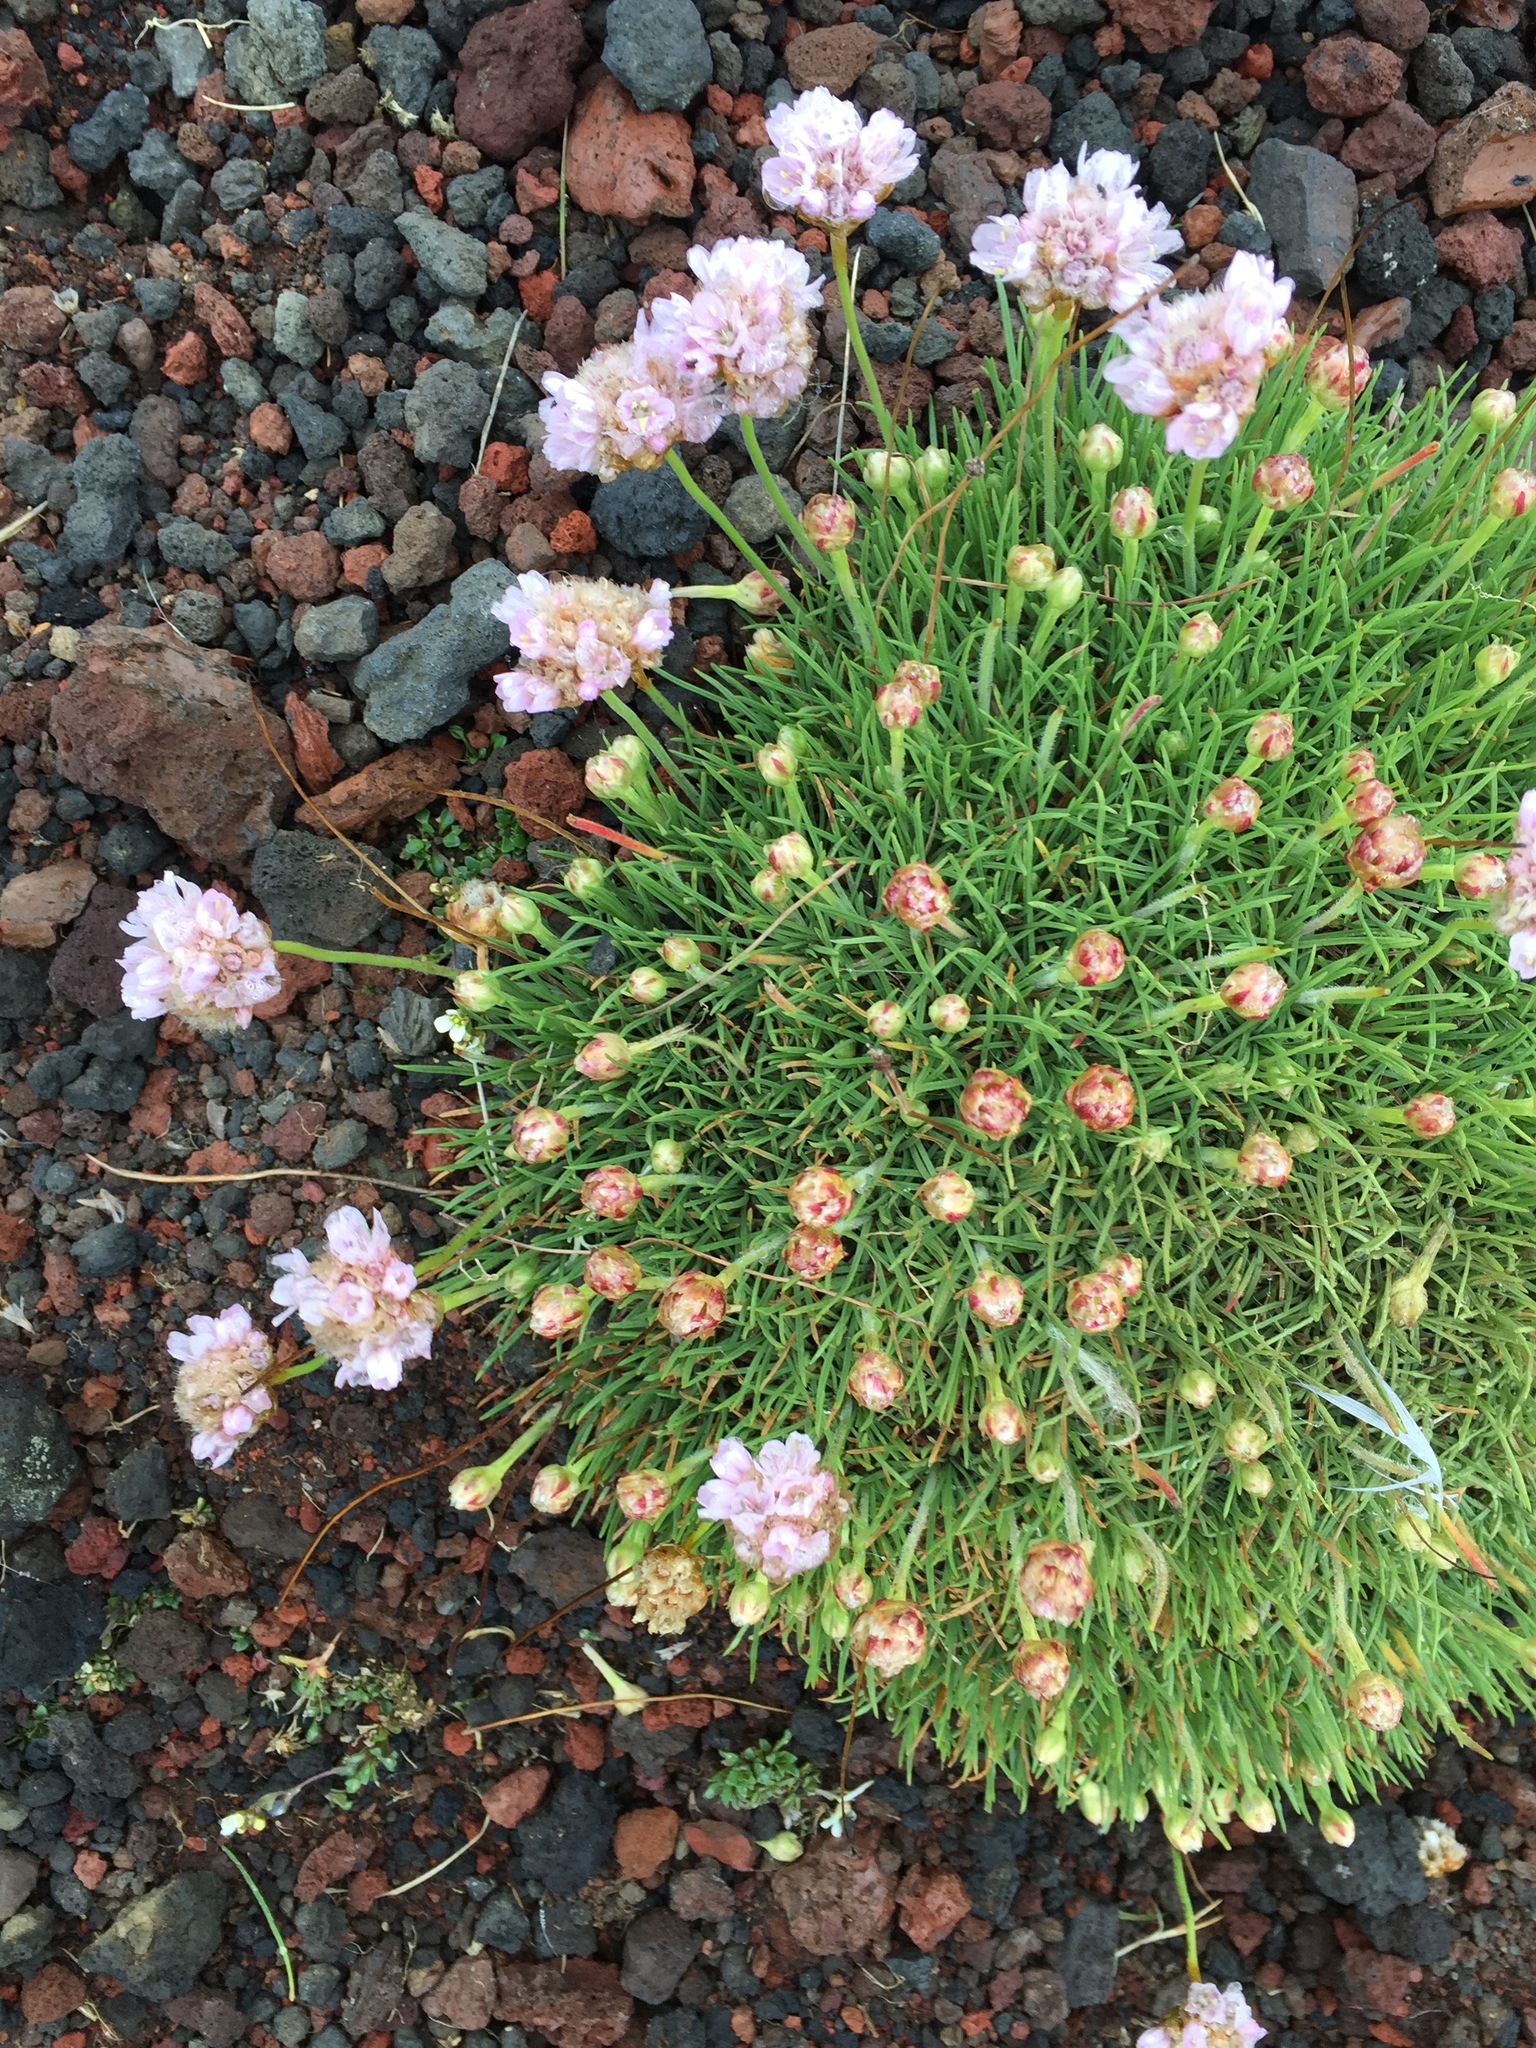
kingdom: Plantae
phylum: Tracheophyta
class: Magnoliopsida
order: Caryophyllales
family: Plumbaginaceae
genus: Armeria
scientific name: Armeria maritima
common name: Thrift
